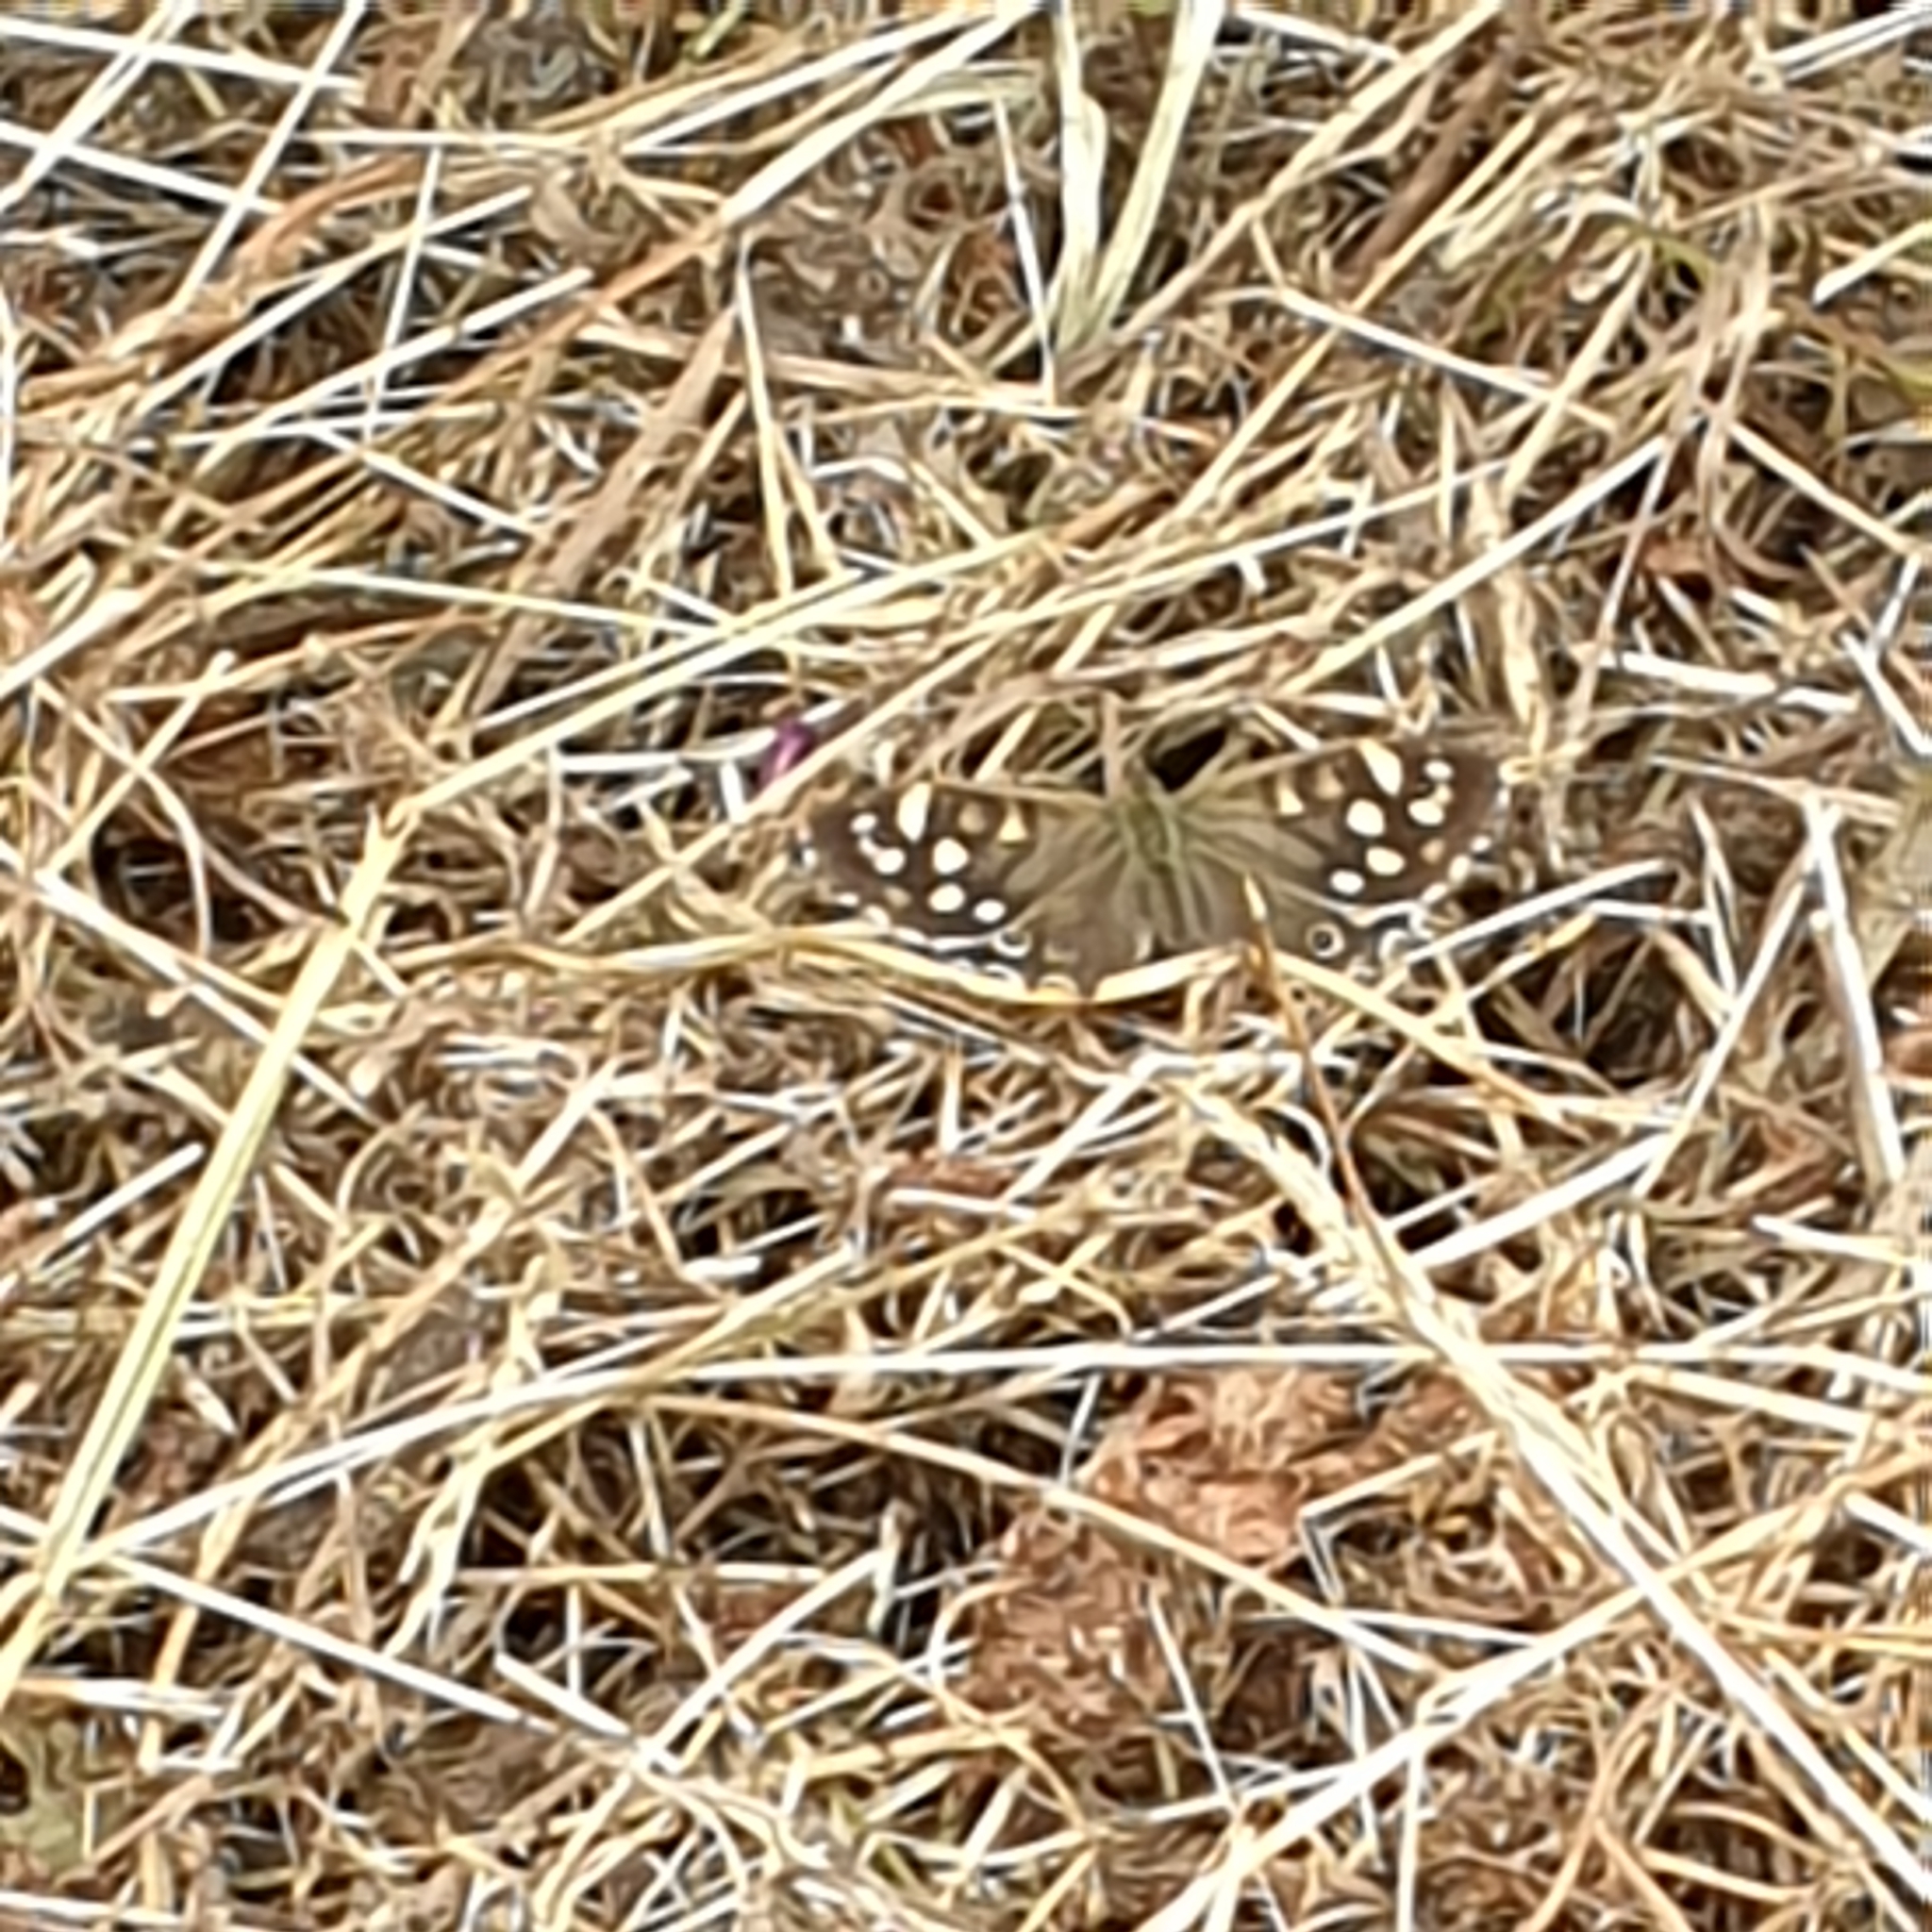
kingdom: Animalia
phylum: Arthropoda
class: Insecta
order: Lepidoptera
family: Nymphalidae
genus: Pararge
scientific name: Pararge aegeria
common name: Speckled wood
